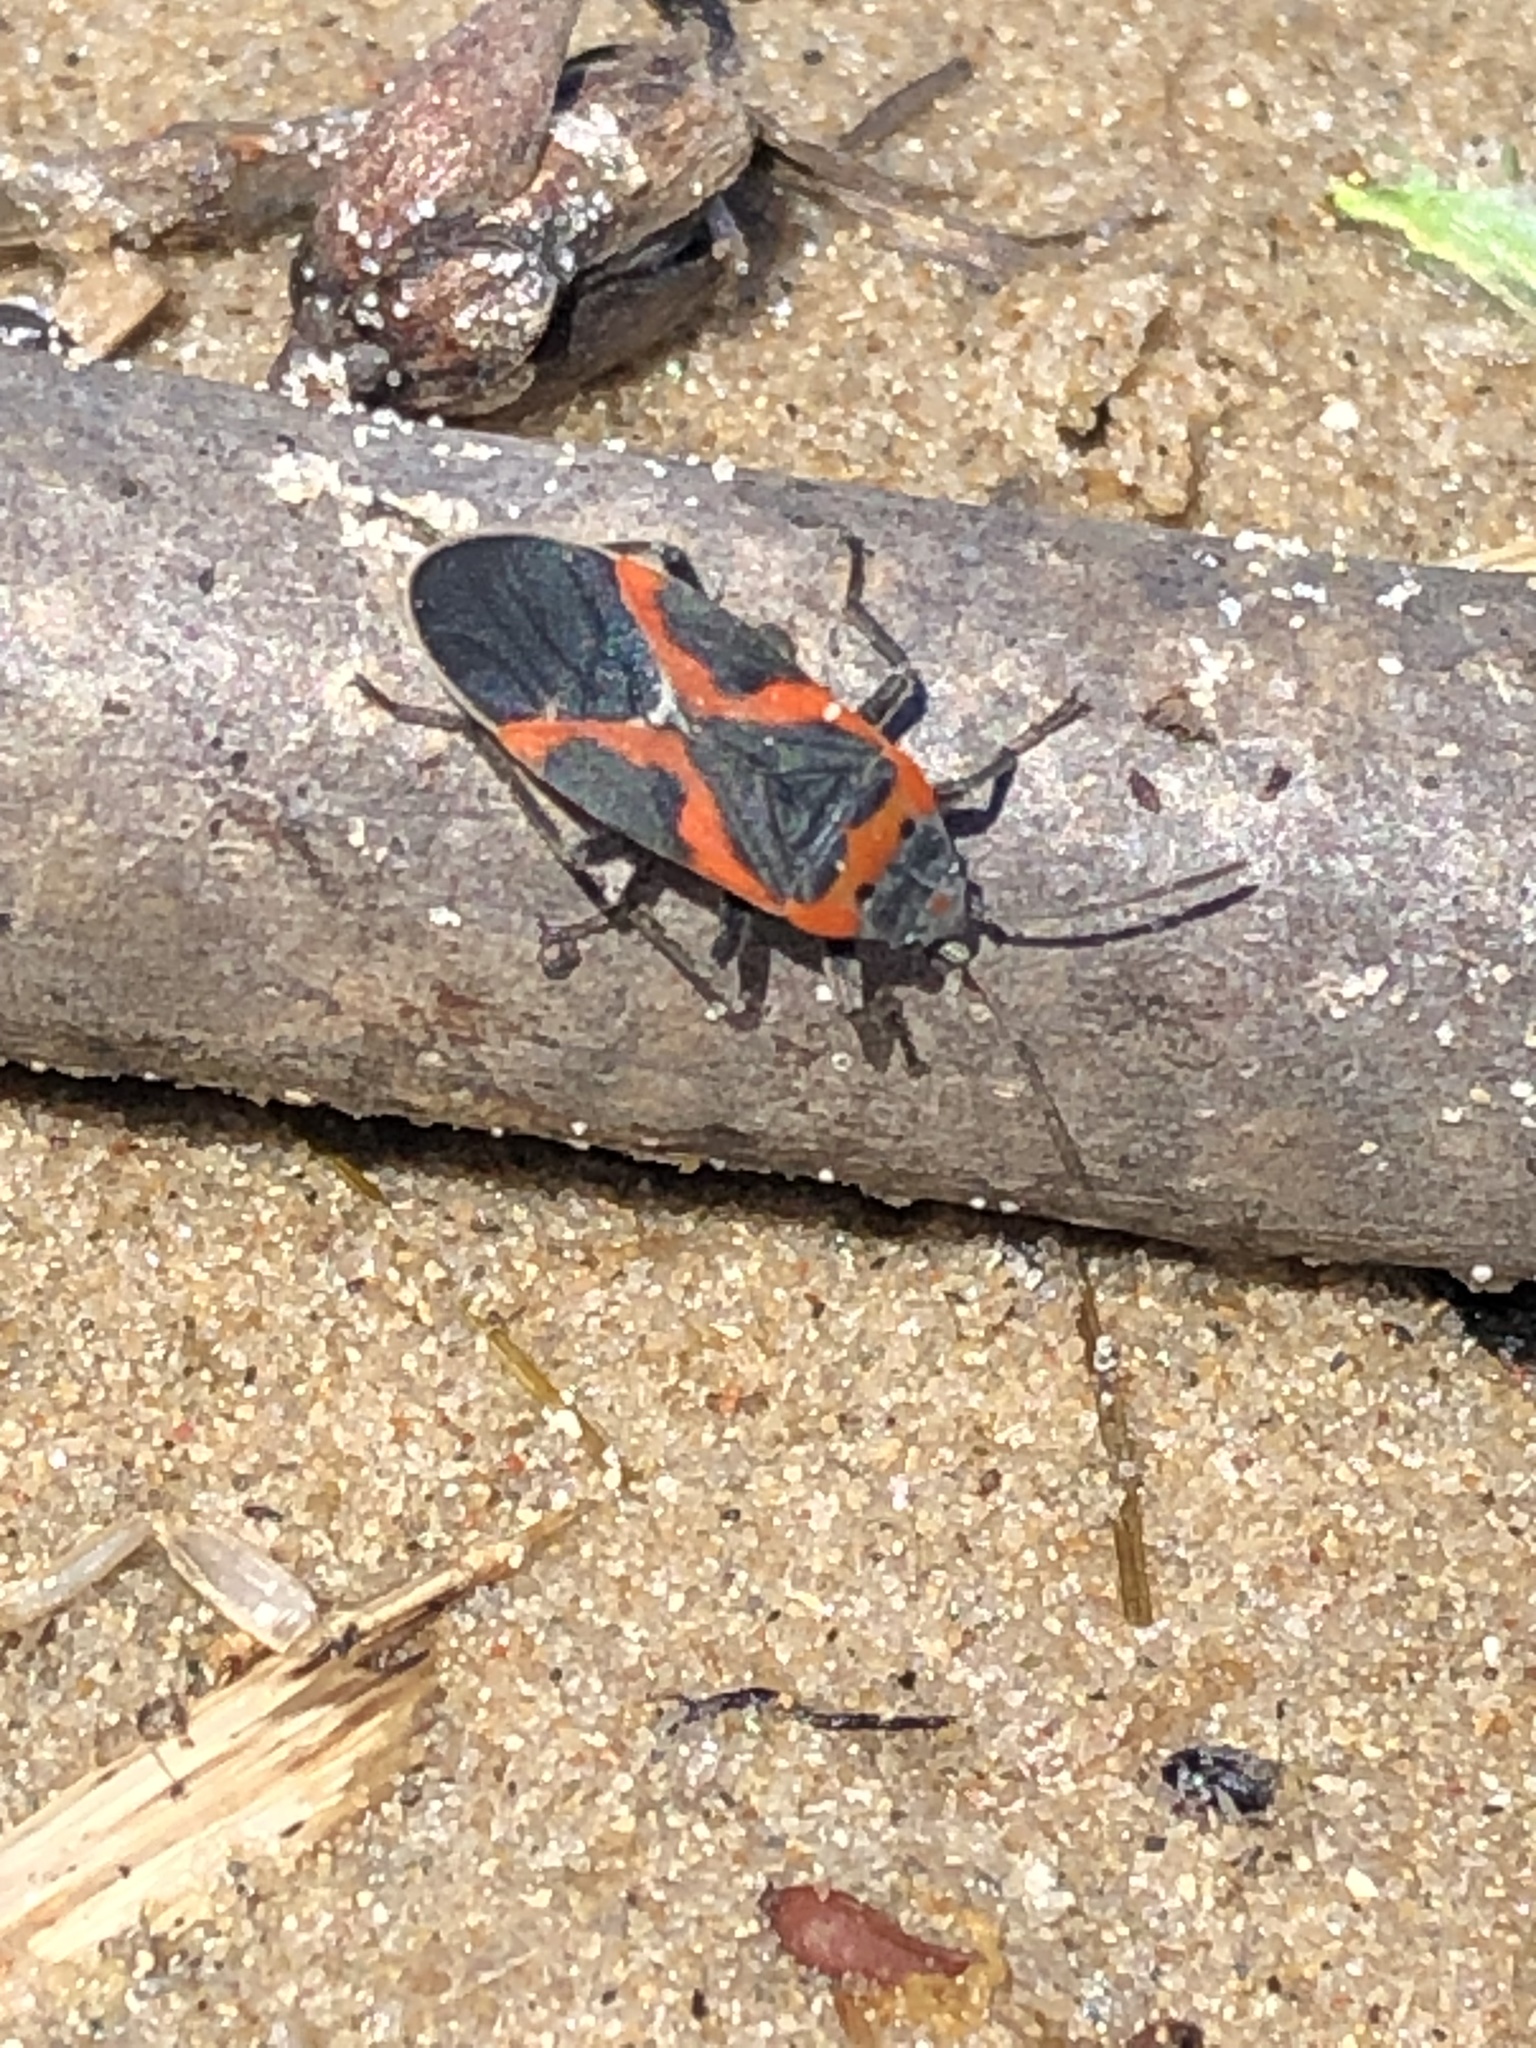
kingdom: Animalia
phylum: Arthropoda
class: Insecta
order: Hemiptera
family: Lygaeidae
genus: Lygaeus
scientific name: Lygaeus kalmii
